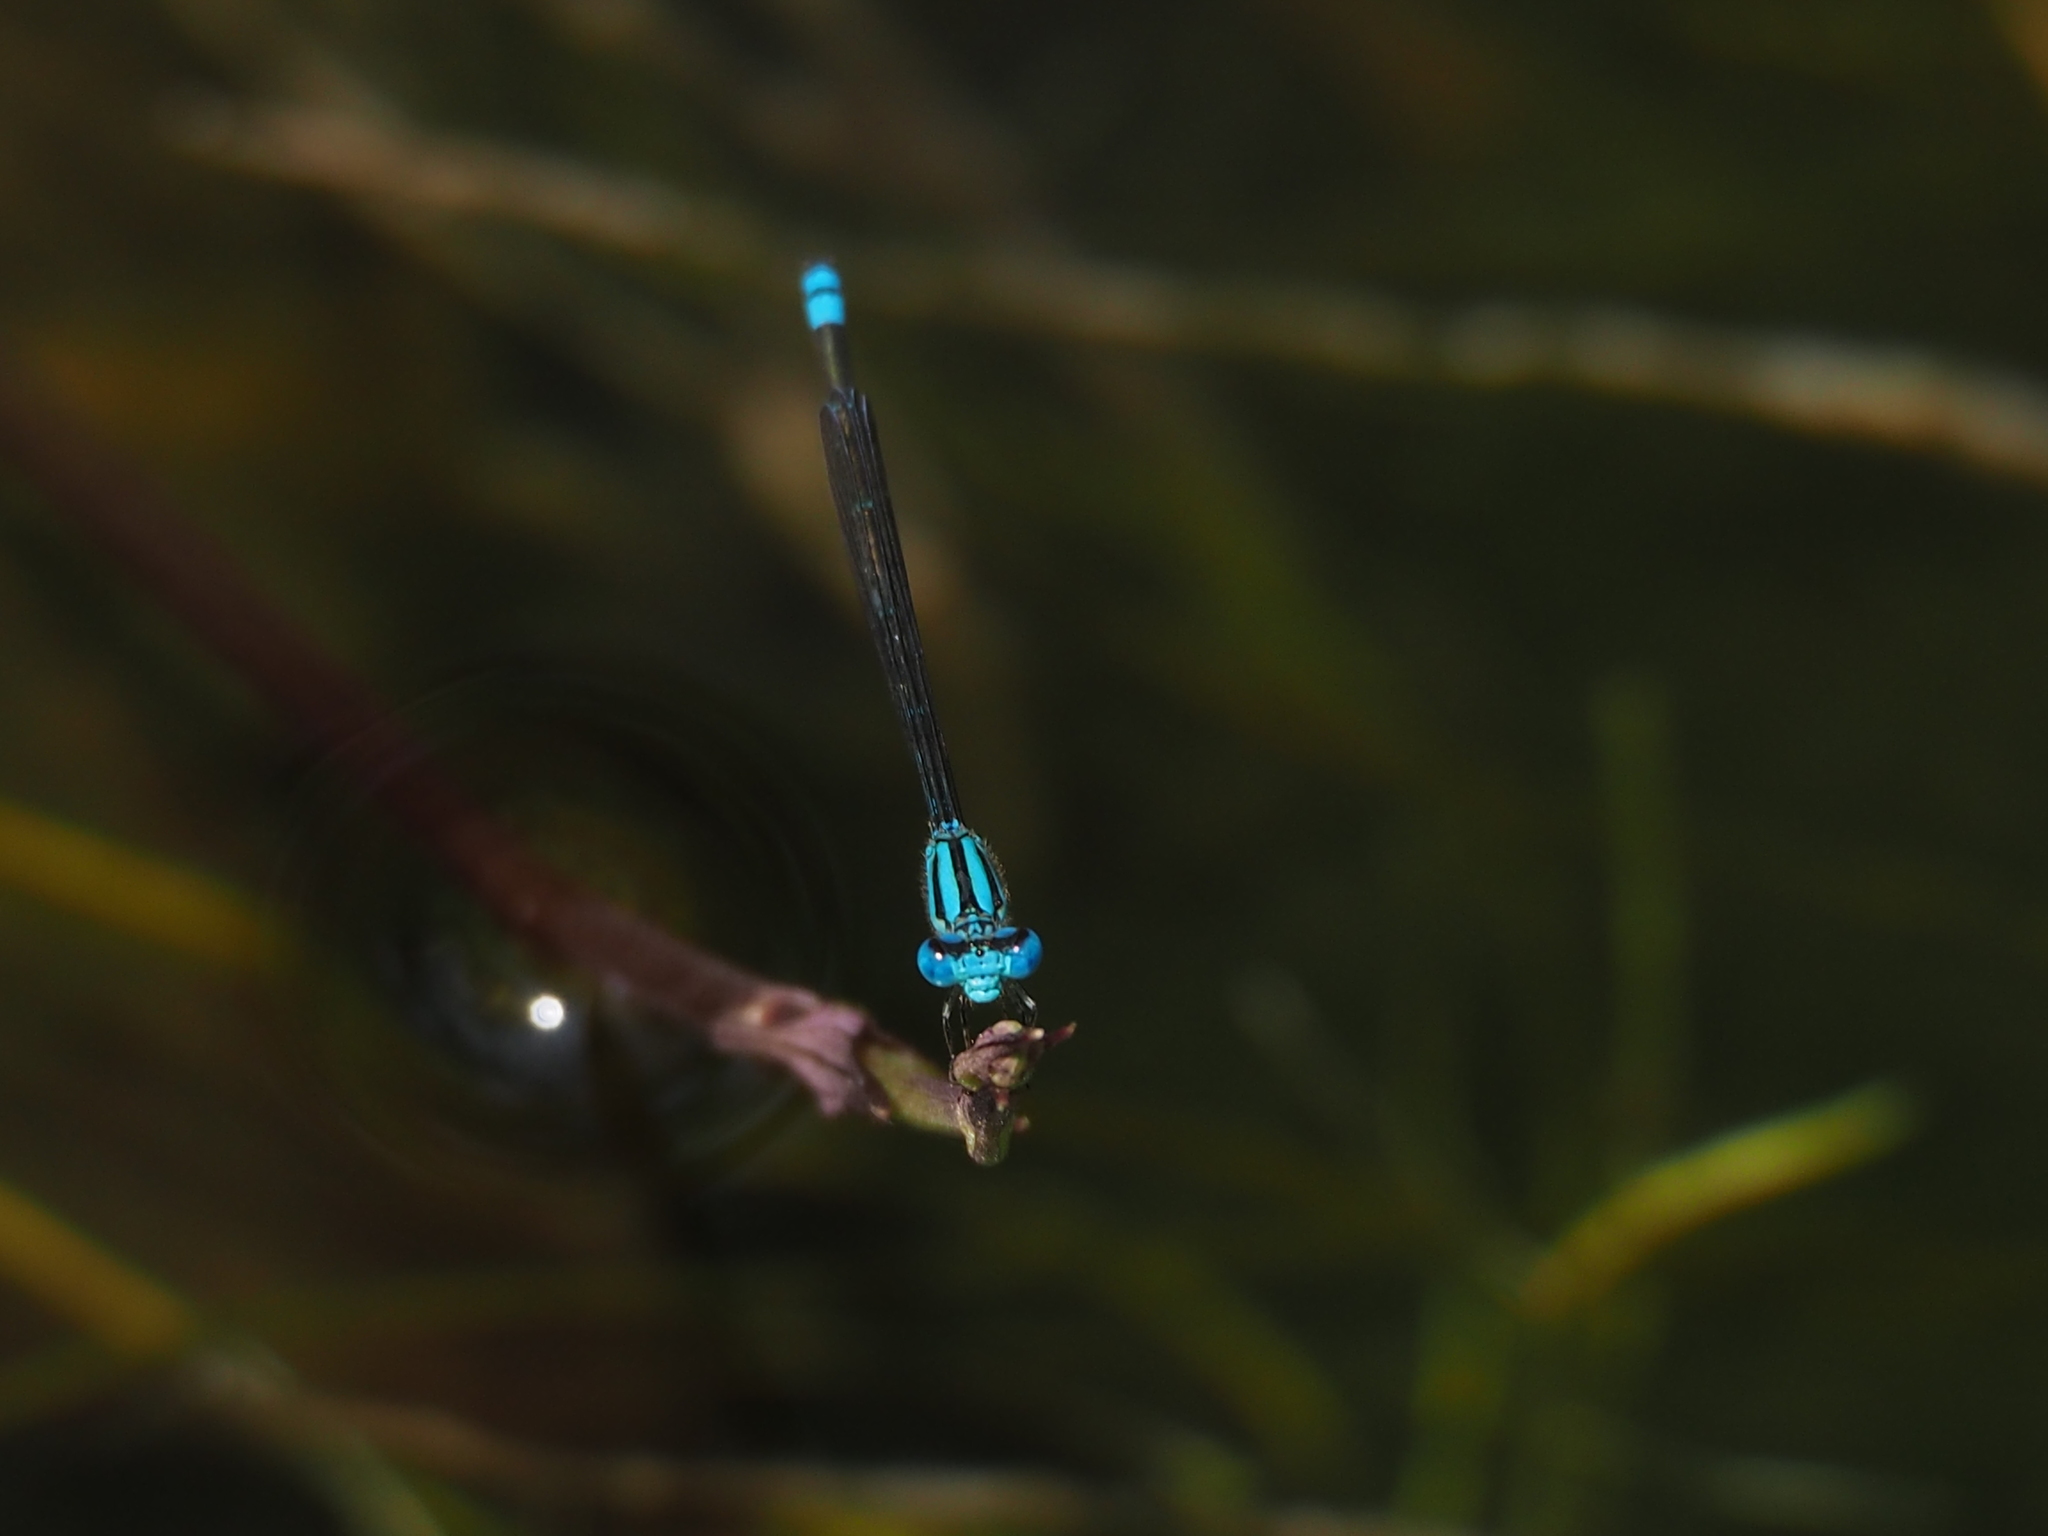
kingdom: Animalia
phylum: Arthropoda
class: Insecta
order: Odonata
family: Coenagrionidae
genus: Pseudagrion
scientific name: Pseudagrion microcephalum
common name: Blue riverdamsel
